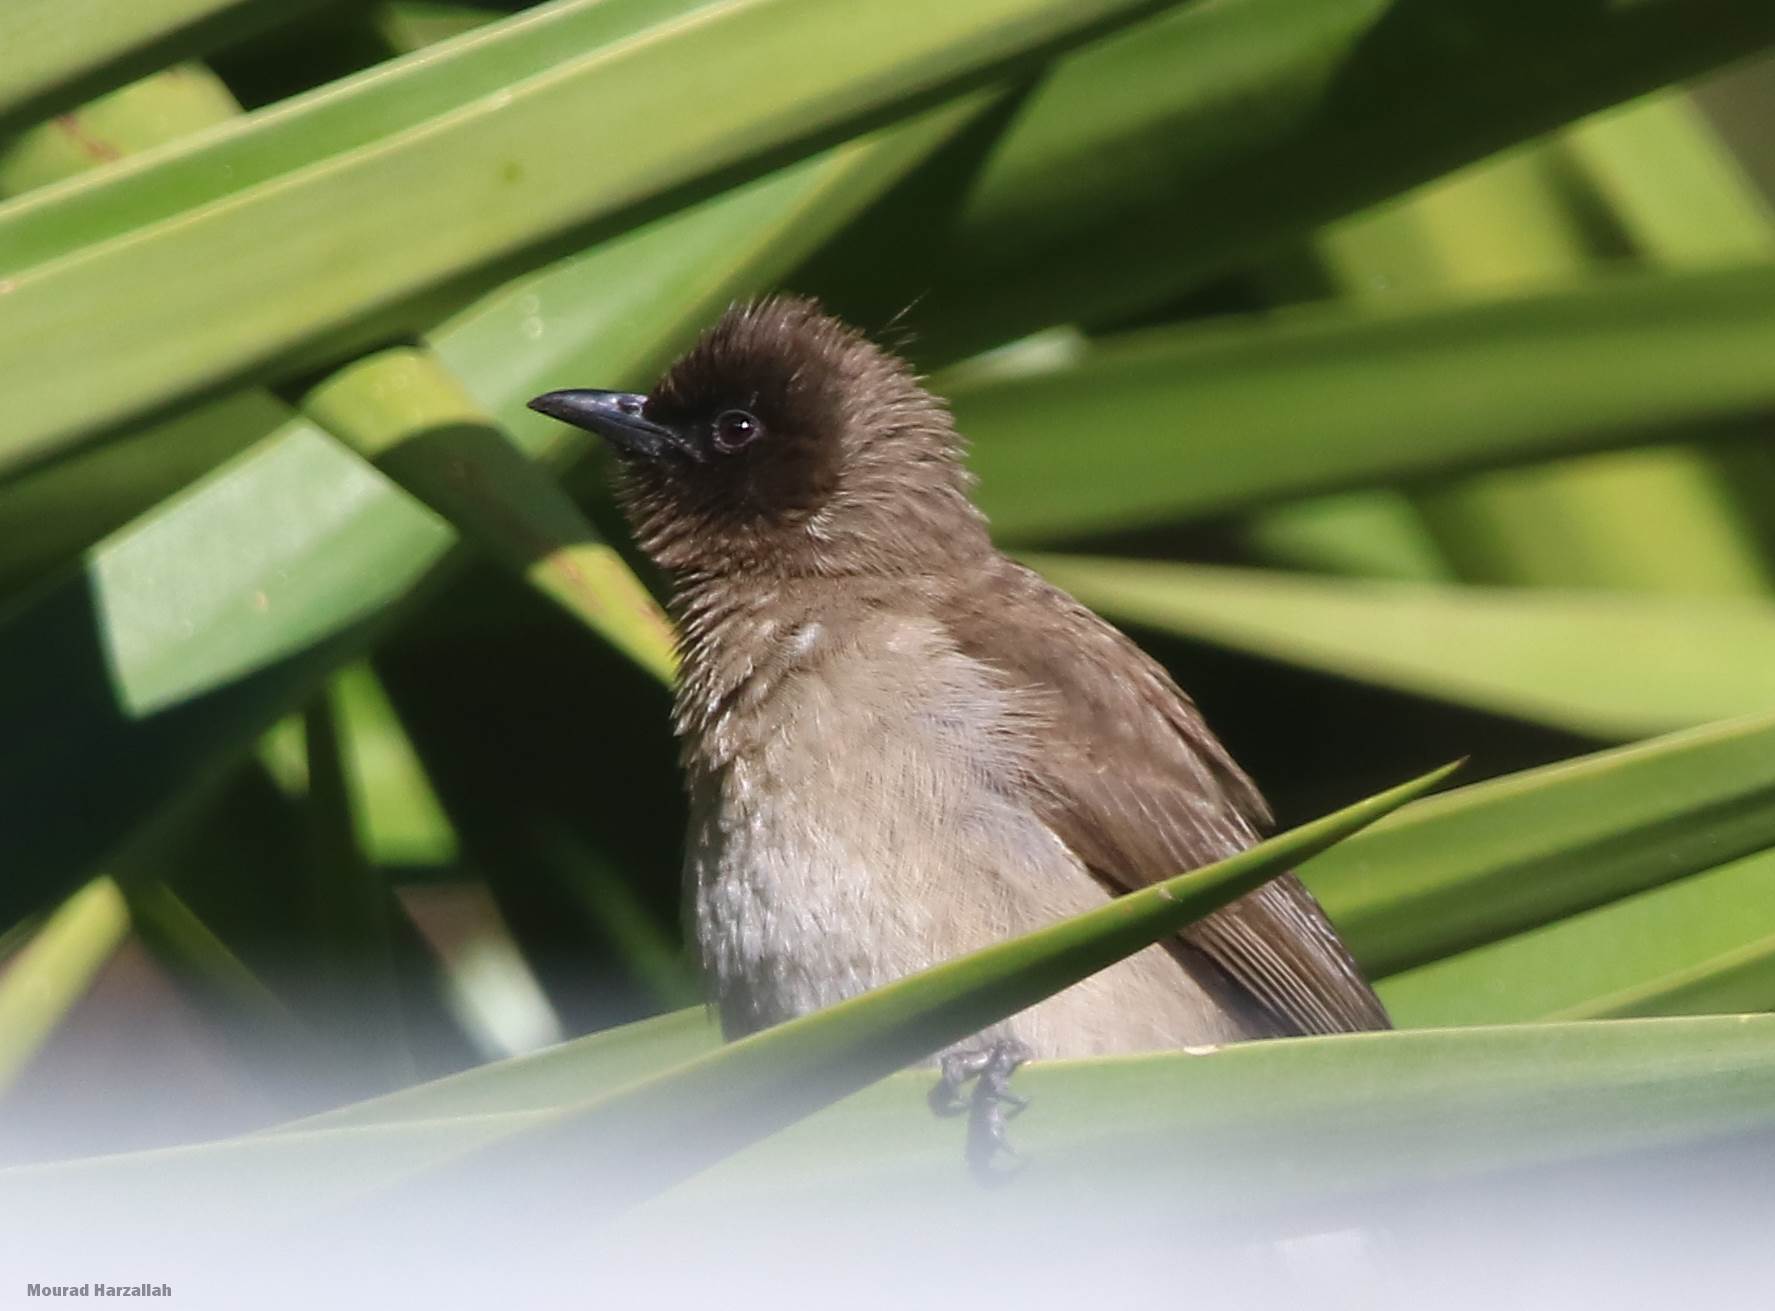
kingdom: Animalia
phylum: Chordata
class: Aves
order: Passeriformes
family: Pycnonotidae
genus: Pycnonotus
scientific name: Pycnonotus barbatus
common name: Common bulbul
